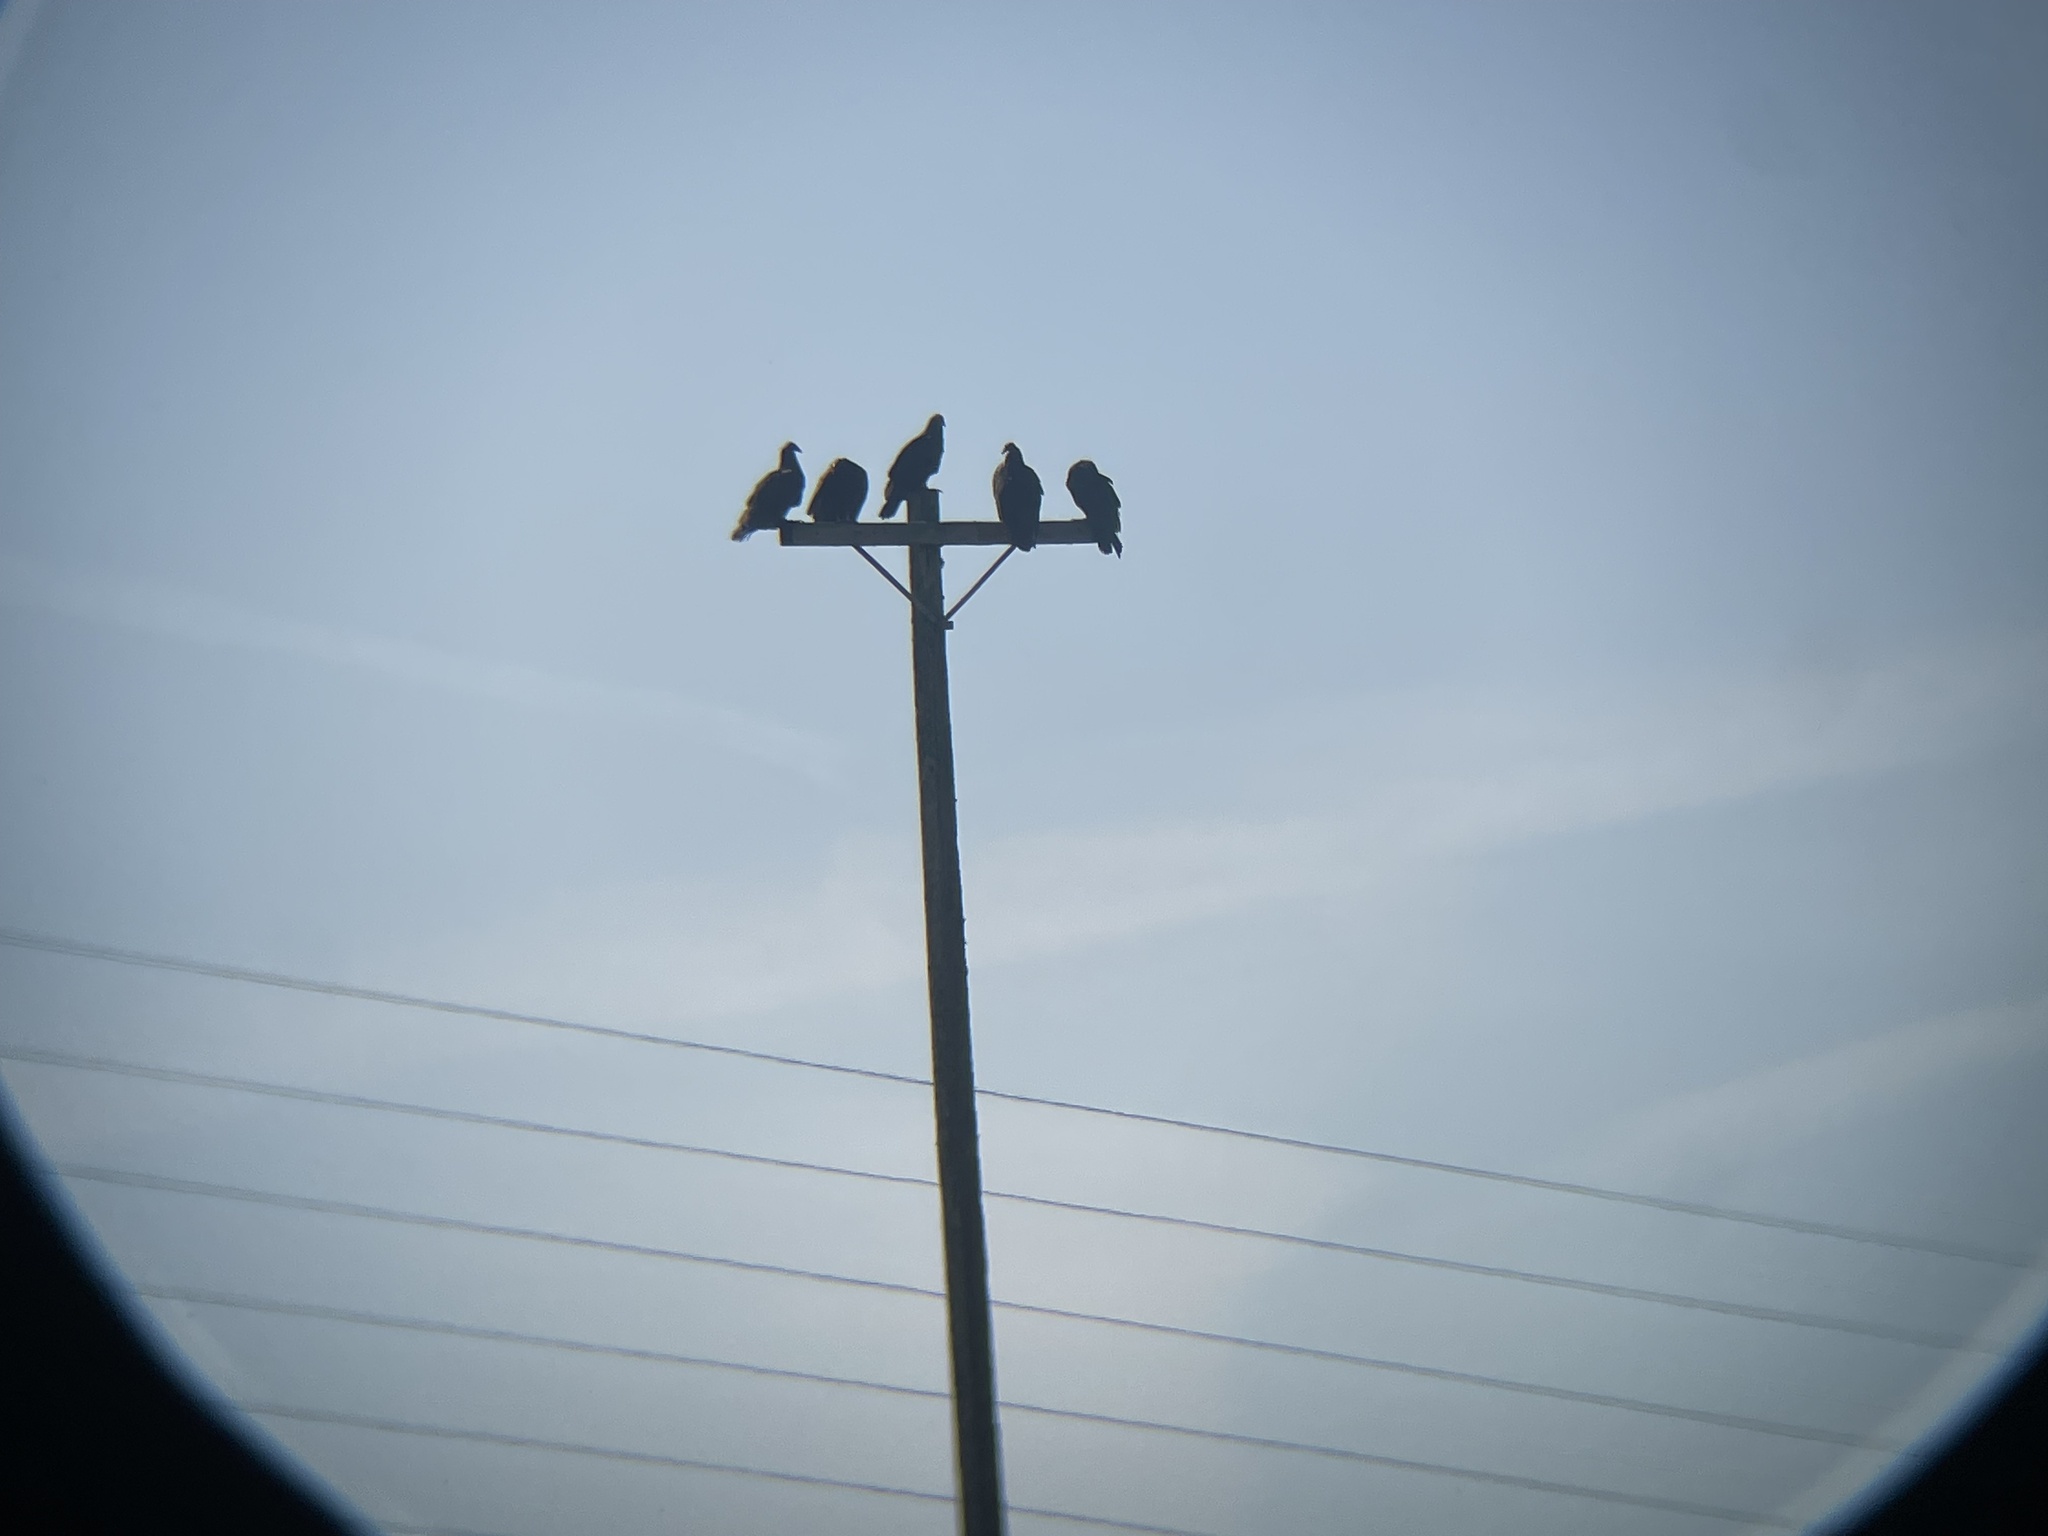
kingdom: Animalia
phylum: Chordata
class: Aves
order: Accipitriformes
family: Cathartidae
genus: Cathartes
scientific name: Cathartes aura
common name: Turkey vulture
